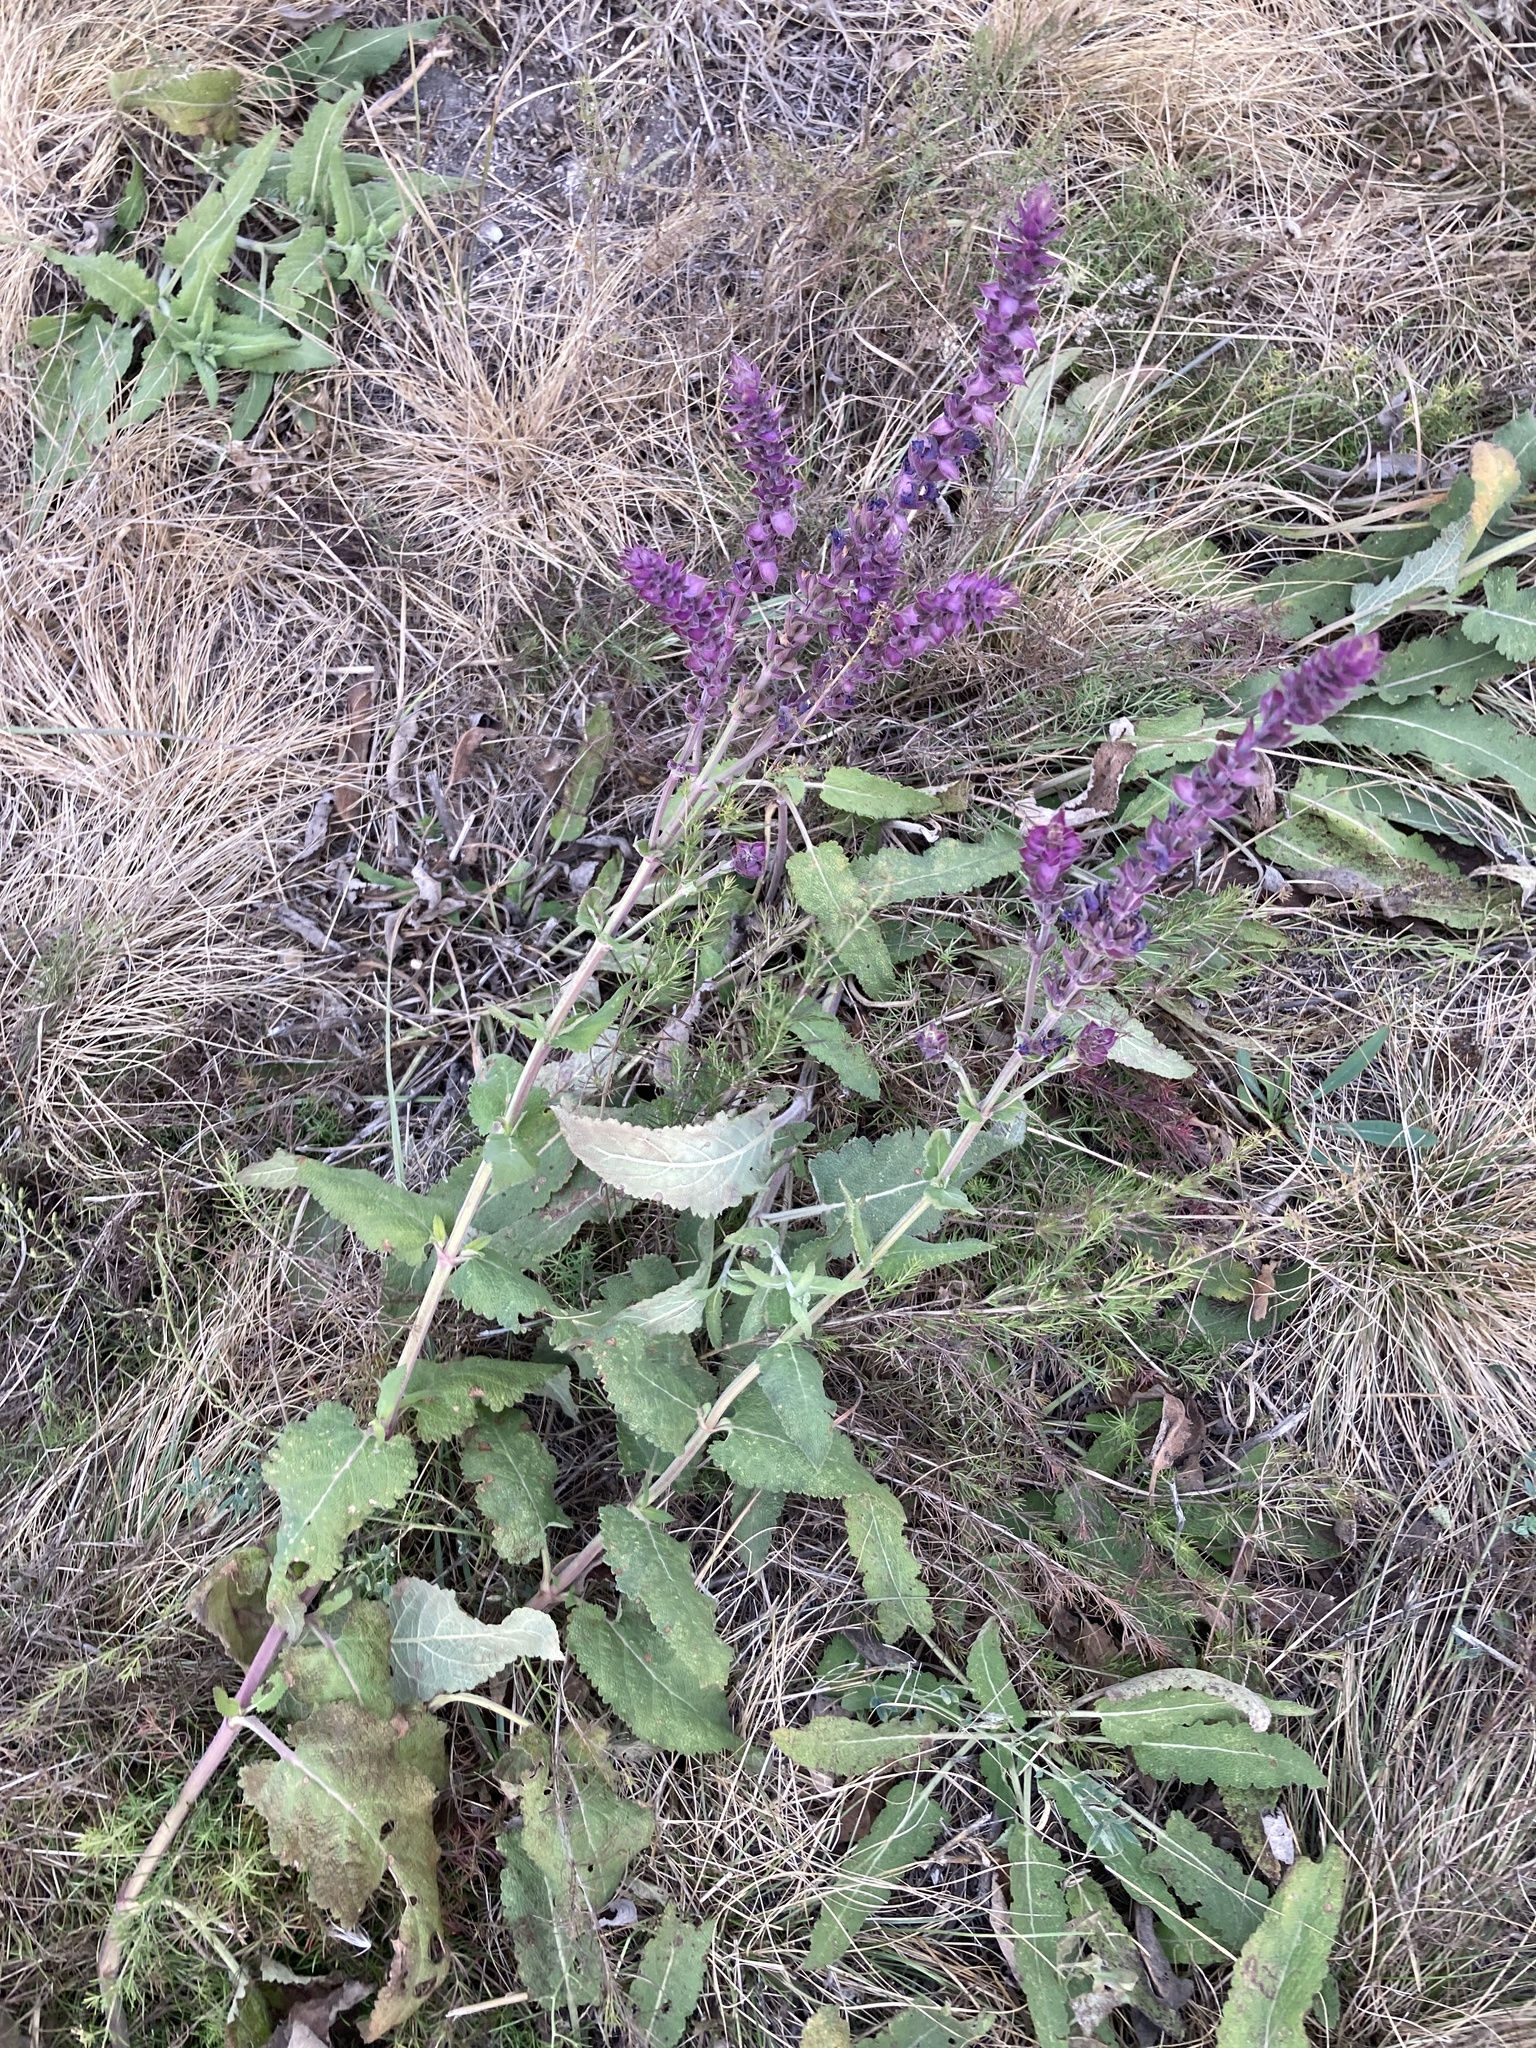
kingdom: Plantae
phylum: Tracheophyta
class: Magnoliopsida
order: Lamiales
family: Lamiaceae
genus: Salvia
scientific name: Salvia nemorosa
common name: Balkan clary
